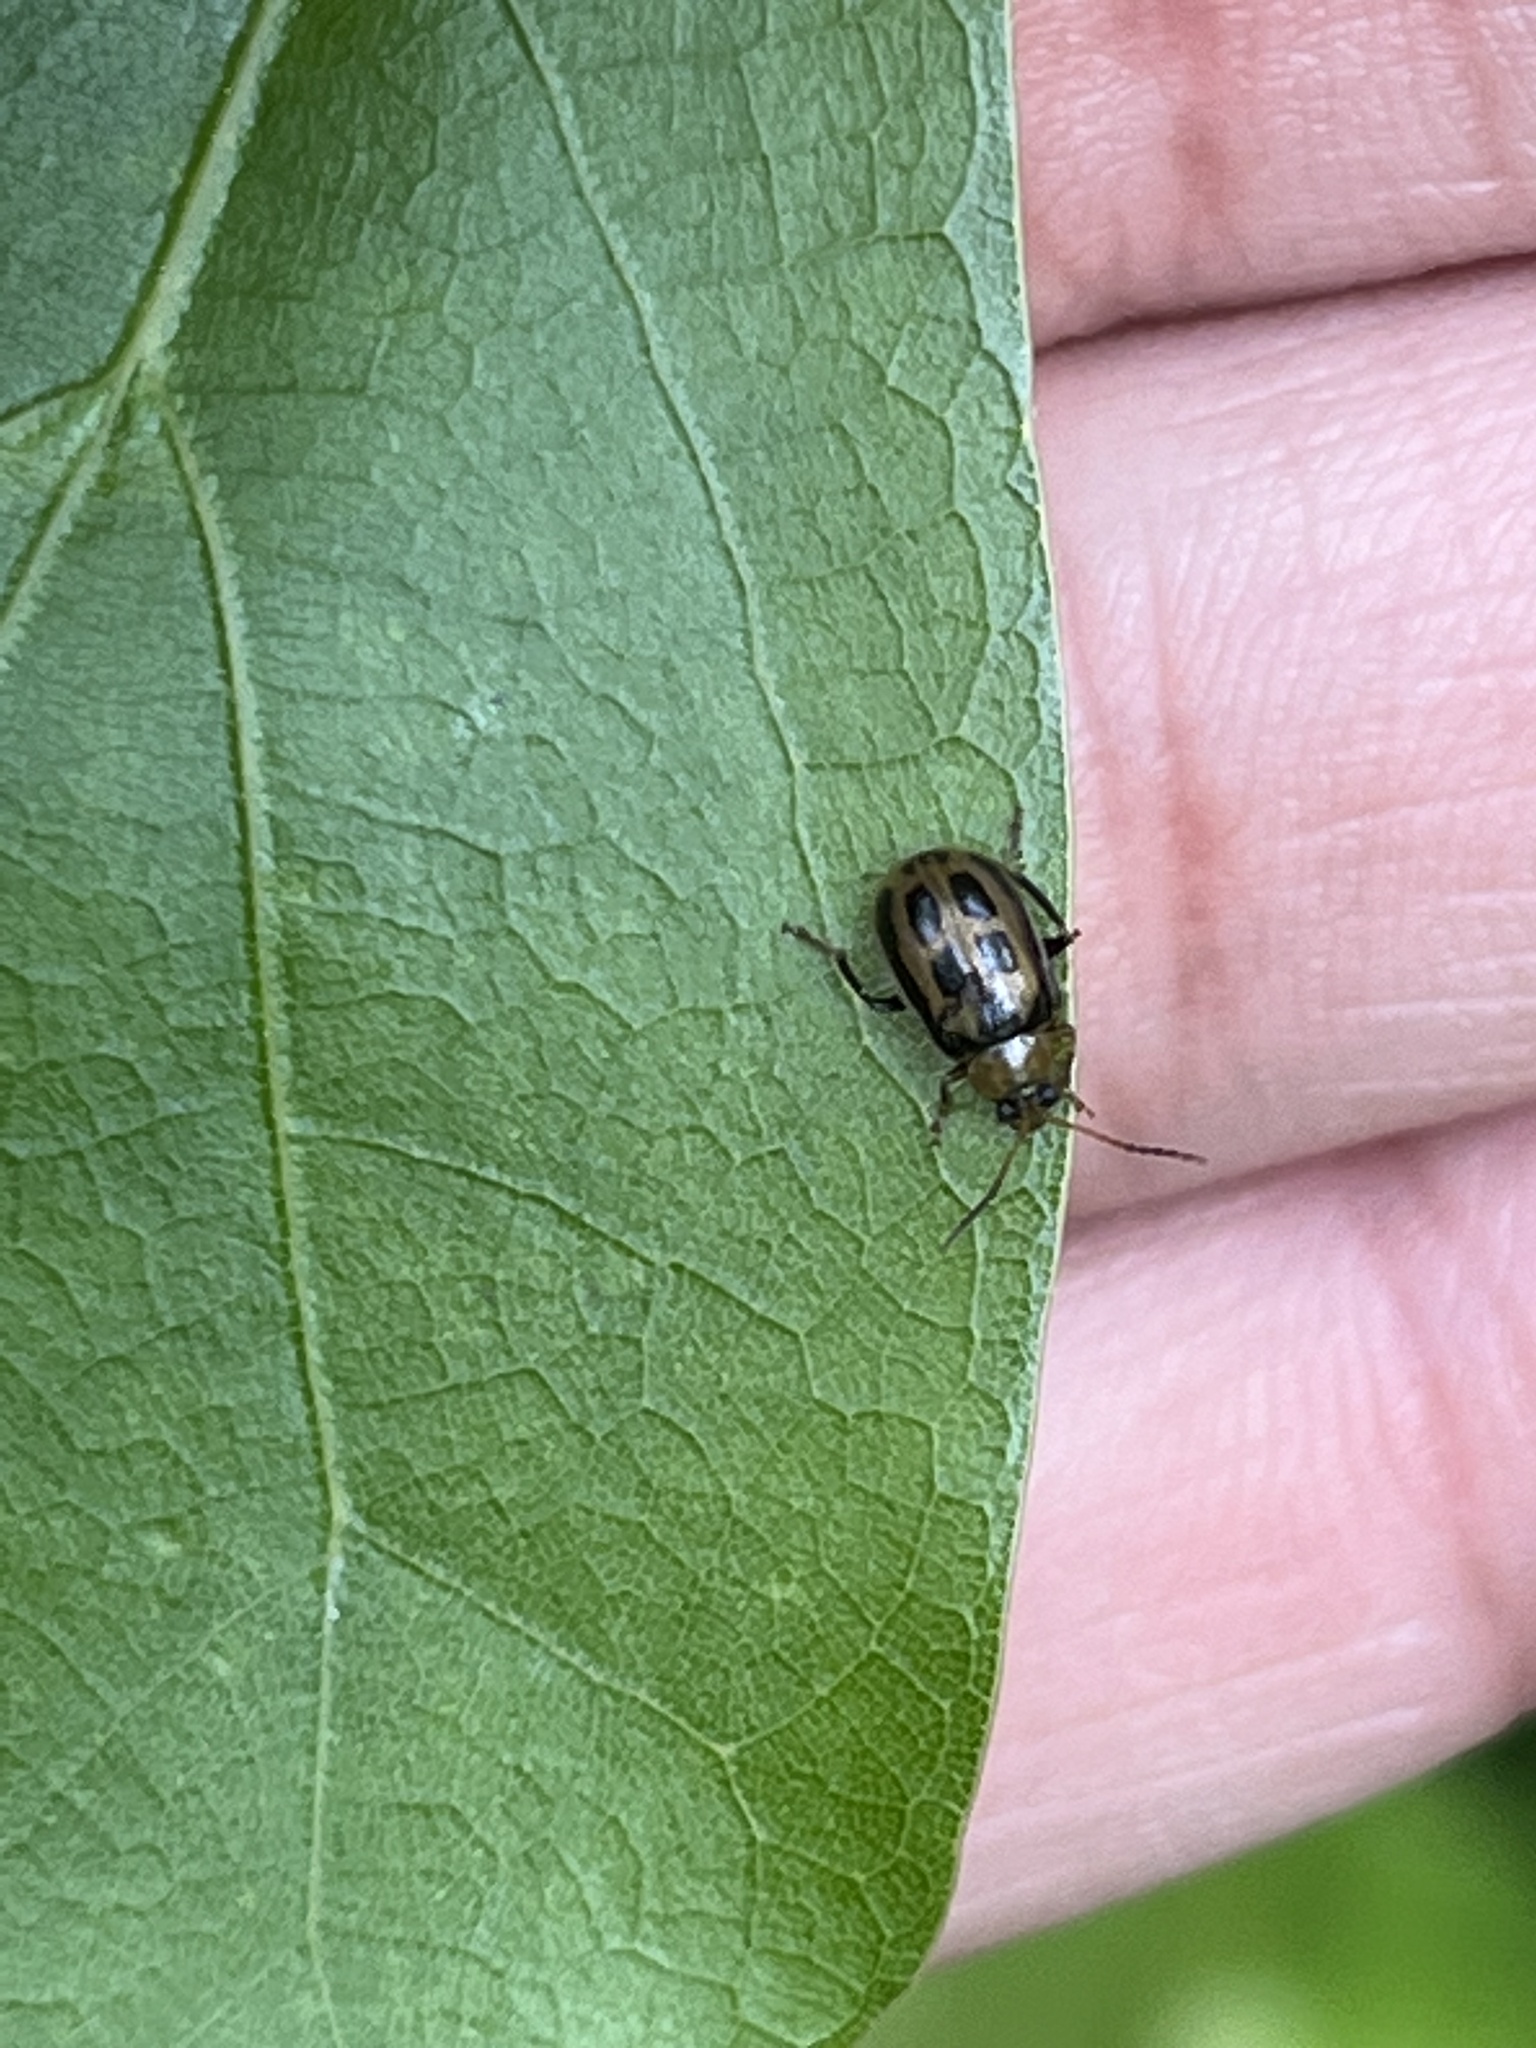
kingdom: Animalia
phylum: Arthropoda
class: Insecta
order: Coleoptera
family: Chrysomelidae
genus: Cerotoma
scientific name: Cerotoma trifurcata
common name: Bean leaf beetle
